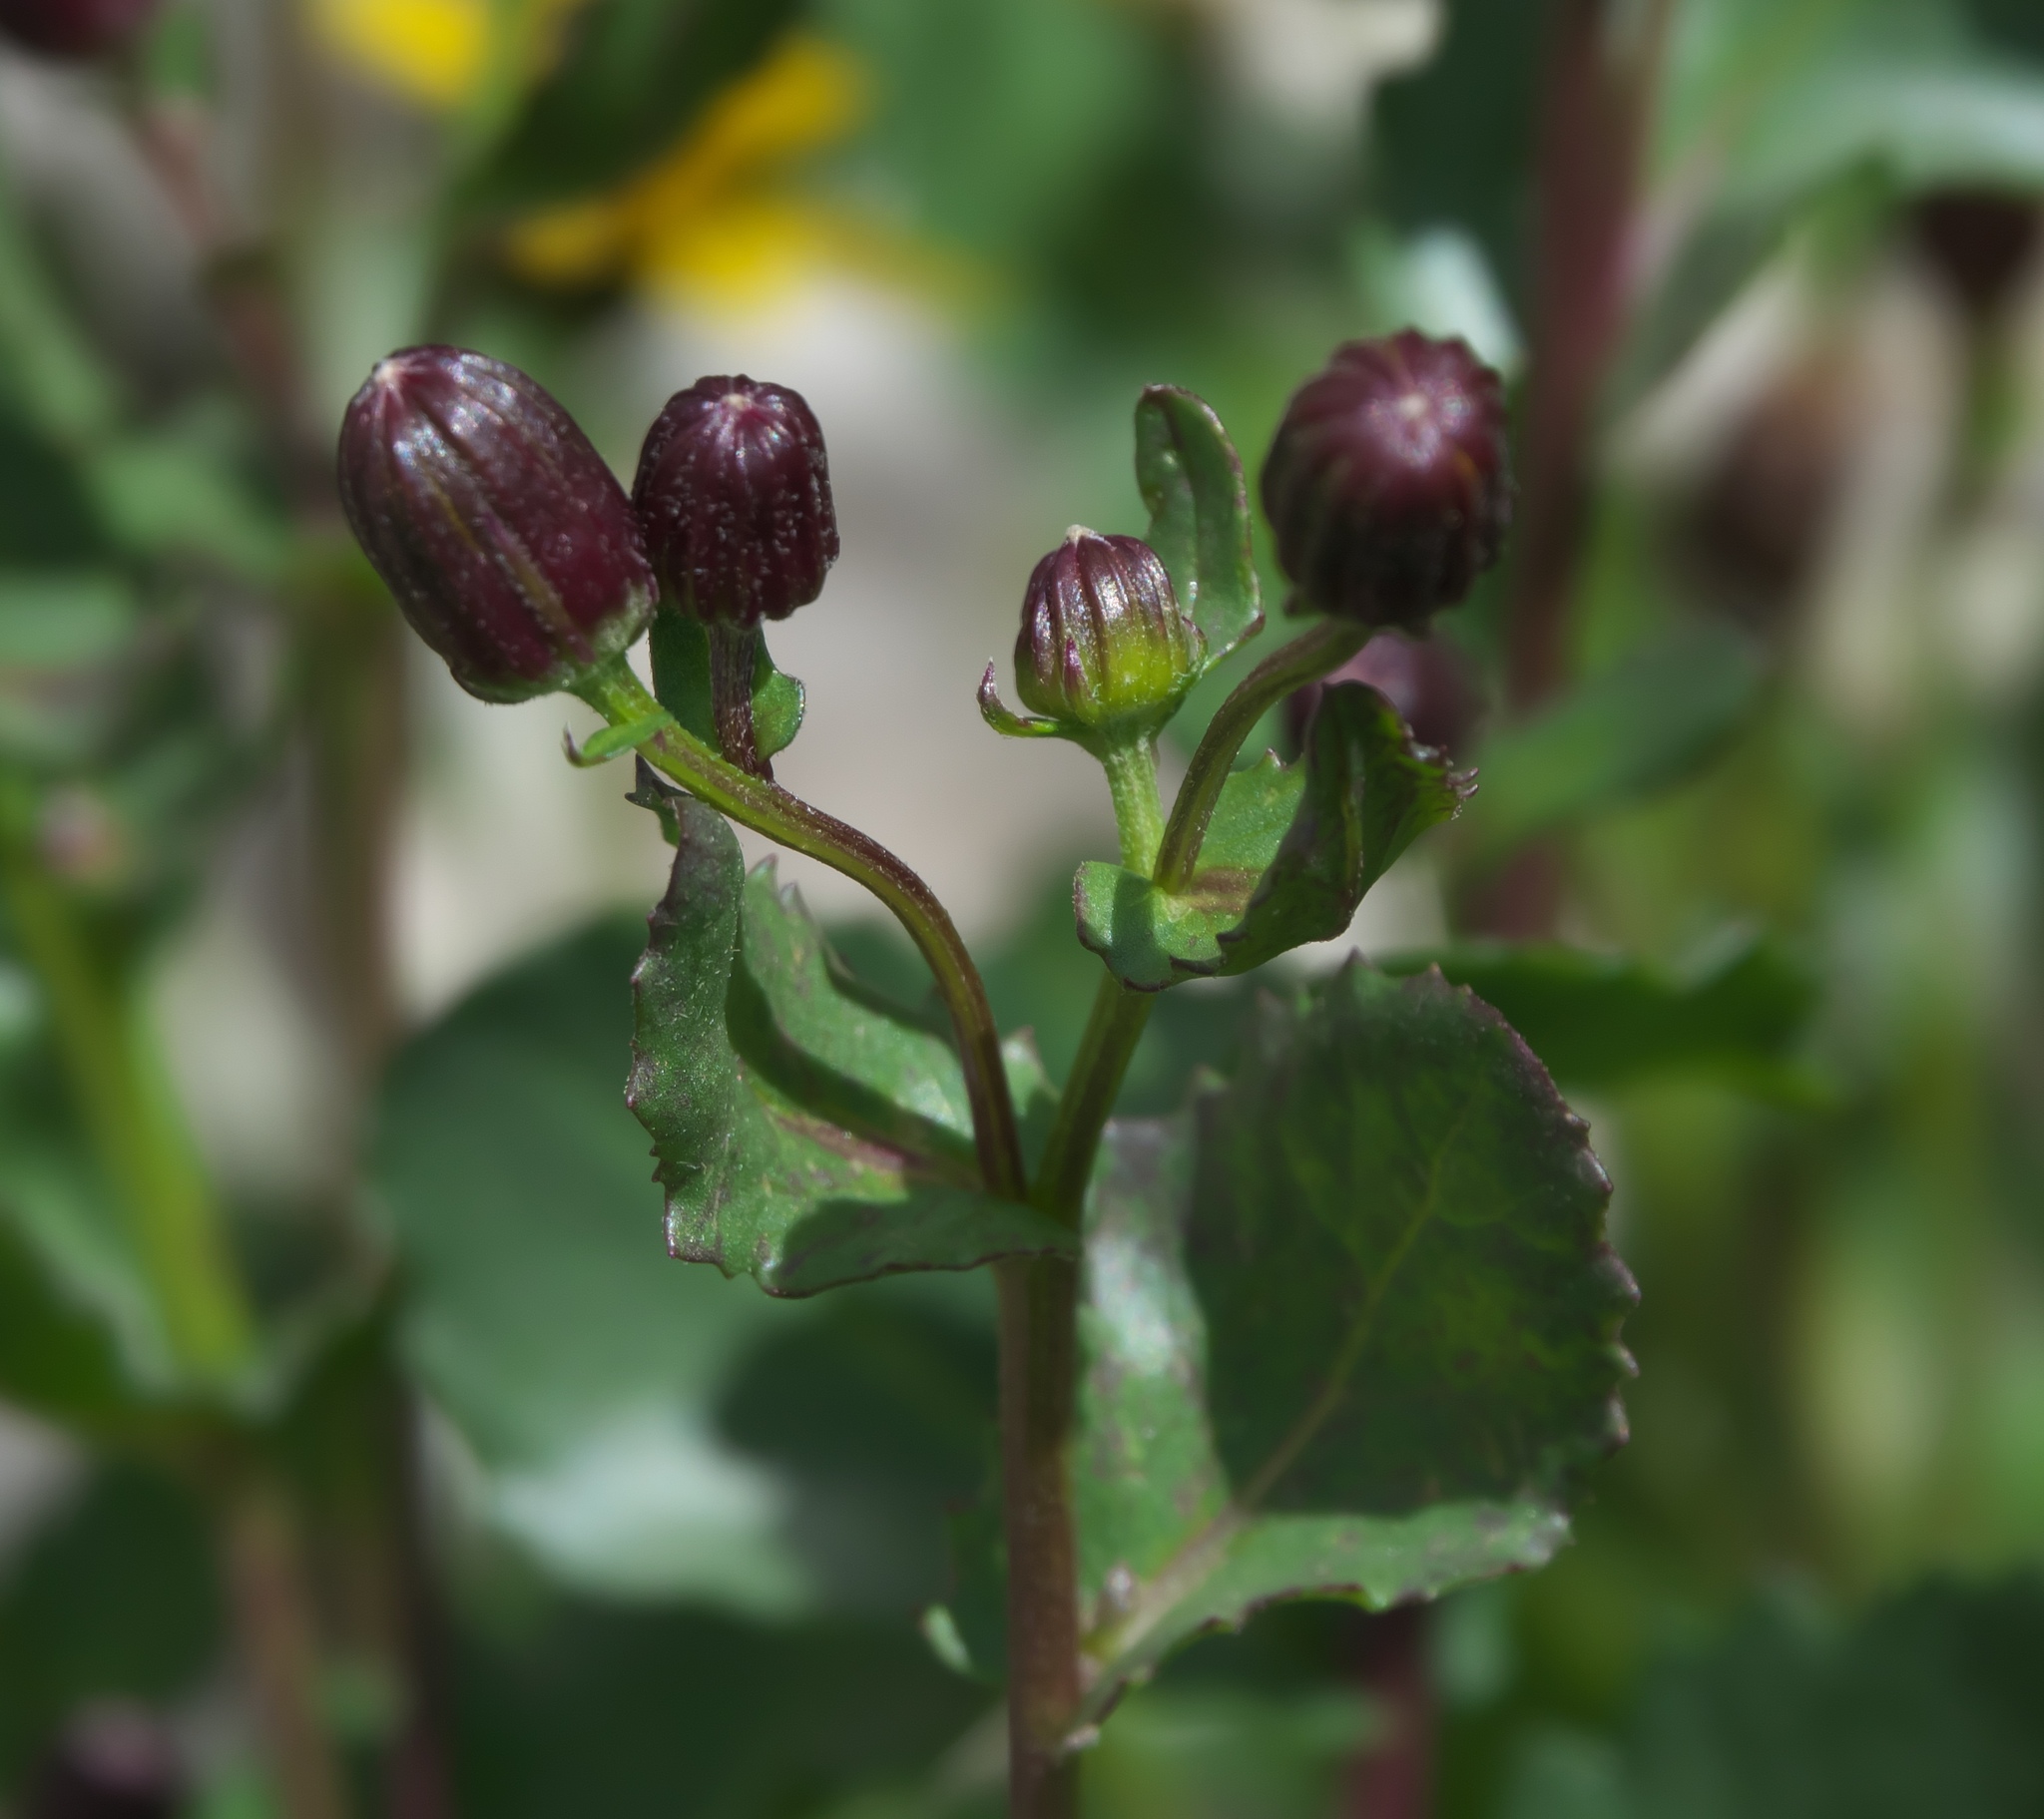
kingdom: Plantae
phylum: Tracheophyta
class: Magnoliopsida
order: Asterales
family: Asteraceae
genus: Senecio
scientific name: Senecio fremontii
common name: Fremont's groundsel
